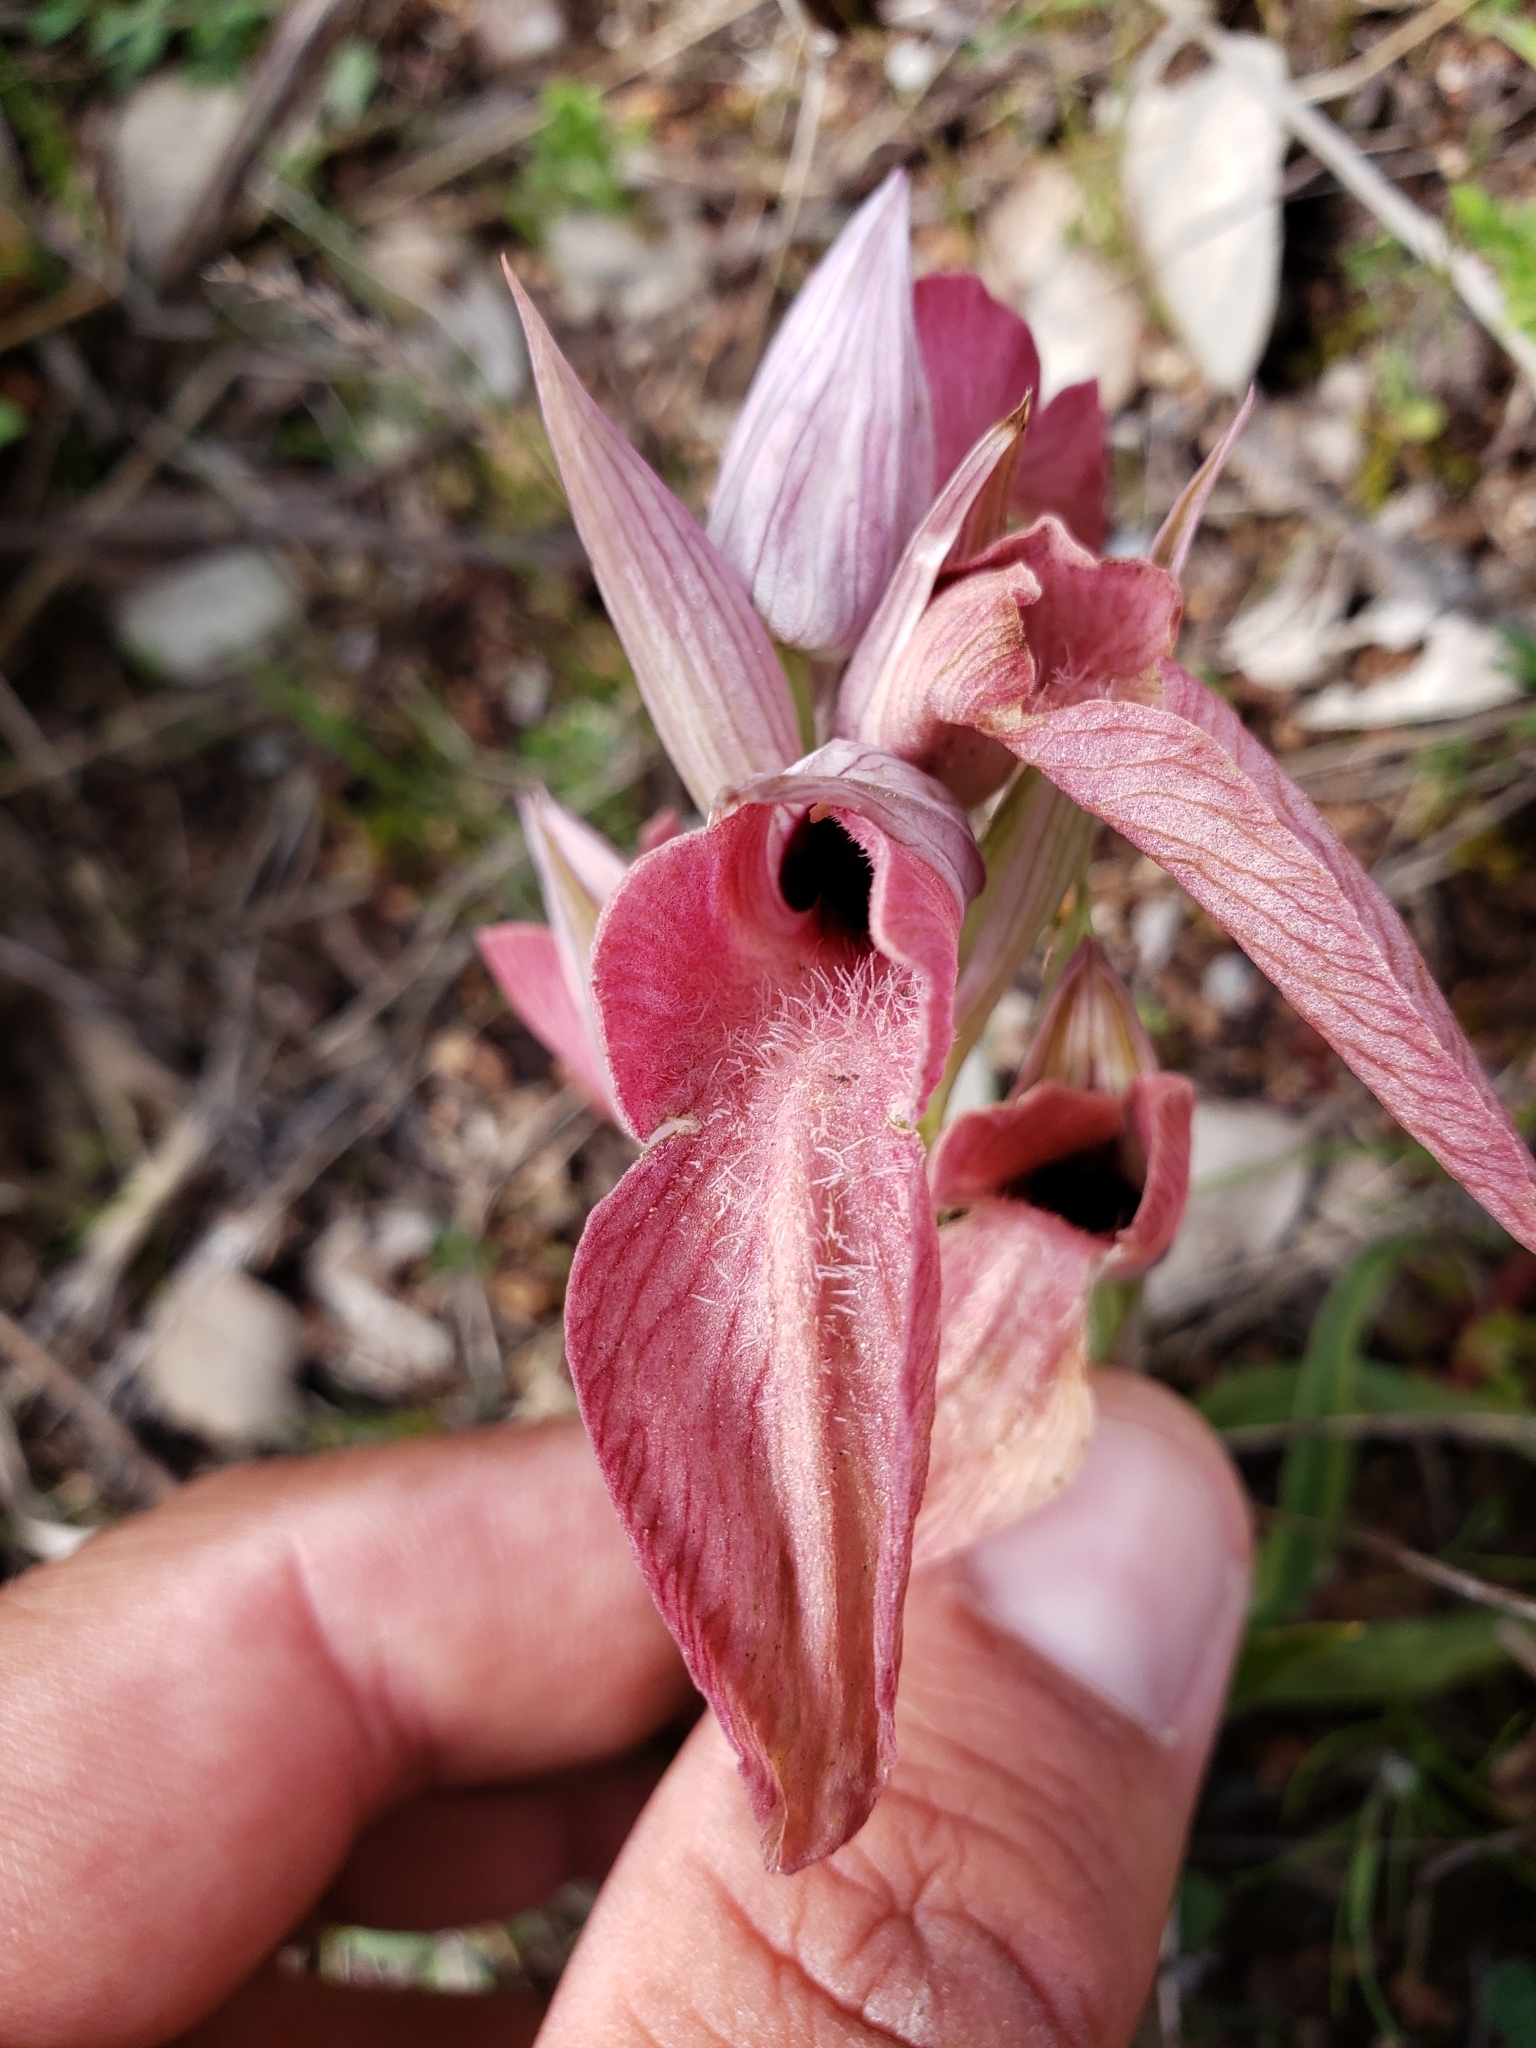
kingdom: Plantae
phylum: Tracheophyta
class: Liliopsida
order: Asparagales
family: Orchidaceae
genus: Serapias
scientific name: Serapias neglecta
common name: Neglected serapias
